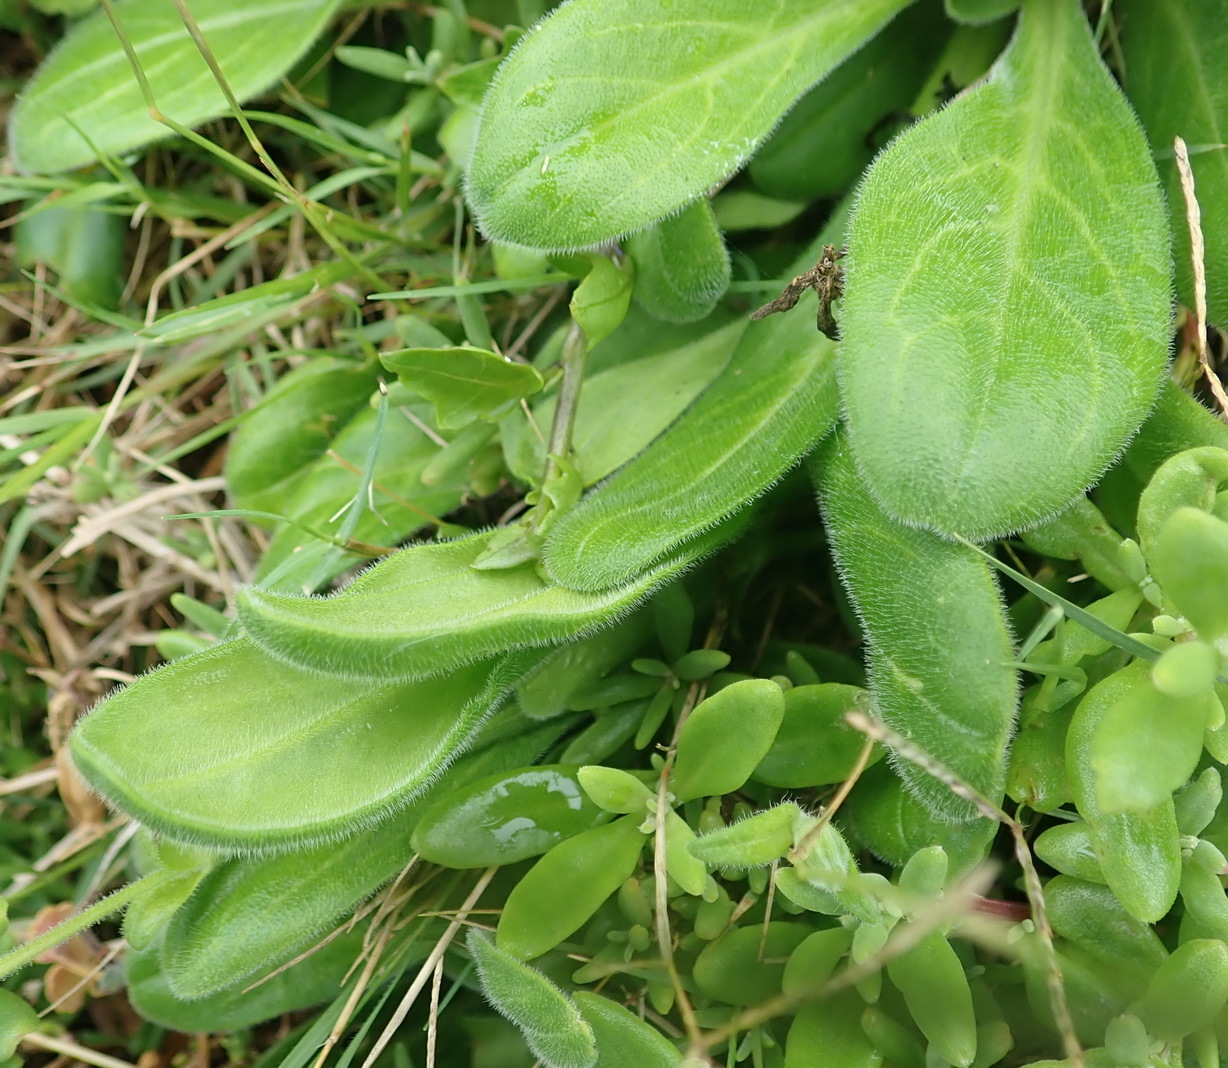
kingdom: Plantae
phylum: Tracheophyta
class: Magnoliopsida
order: Caryophyllales
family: Caryophyllaceae
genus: Silene
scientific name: Silene undulata
